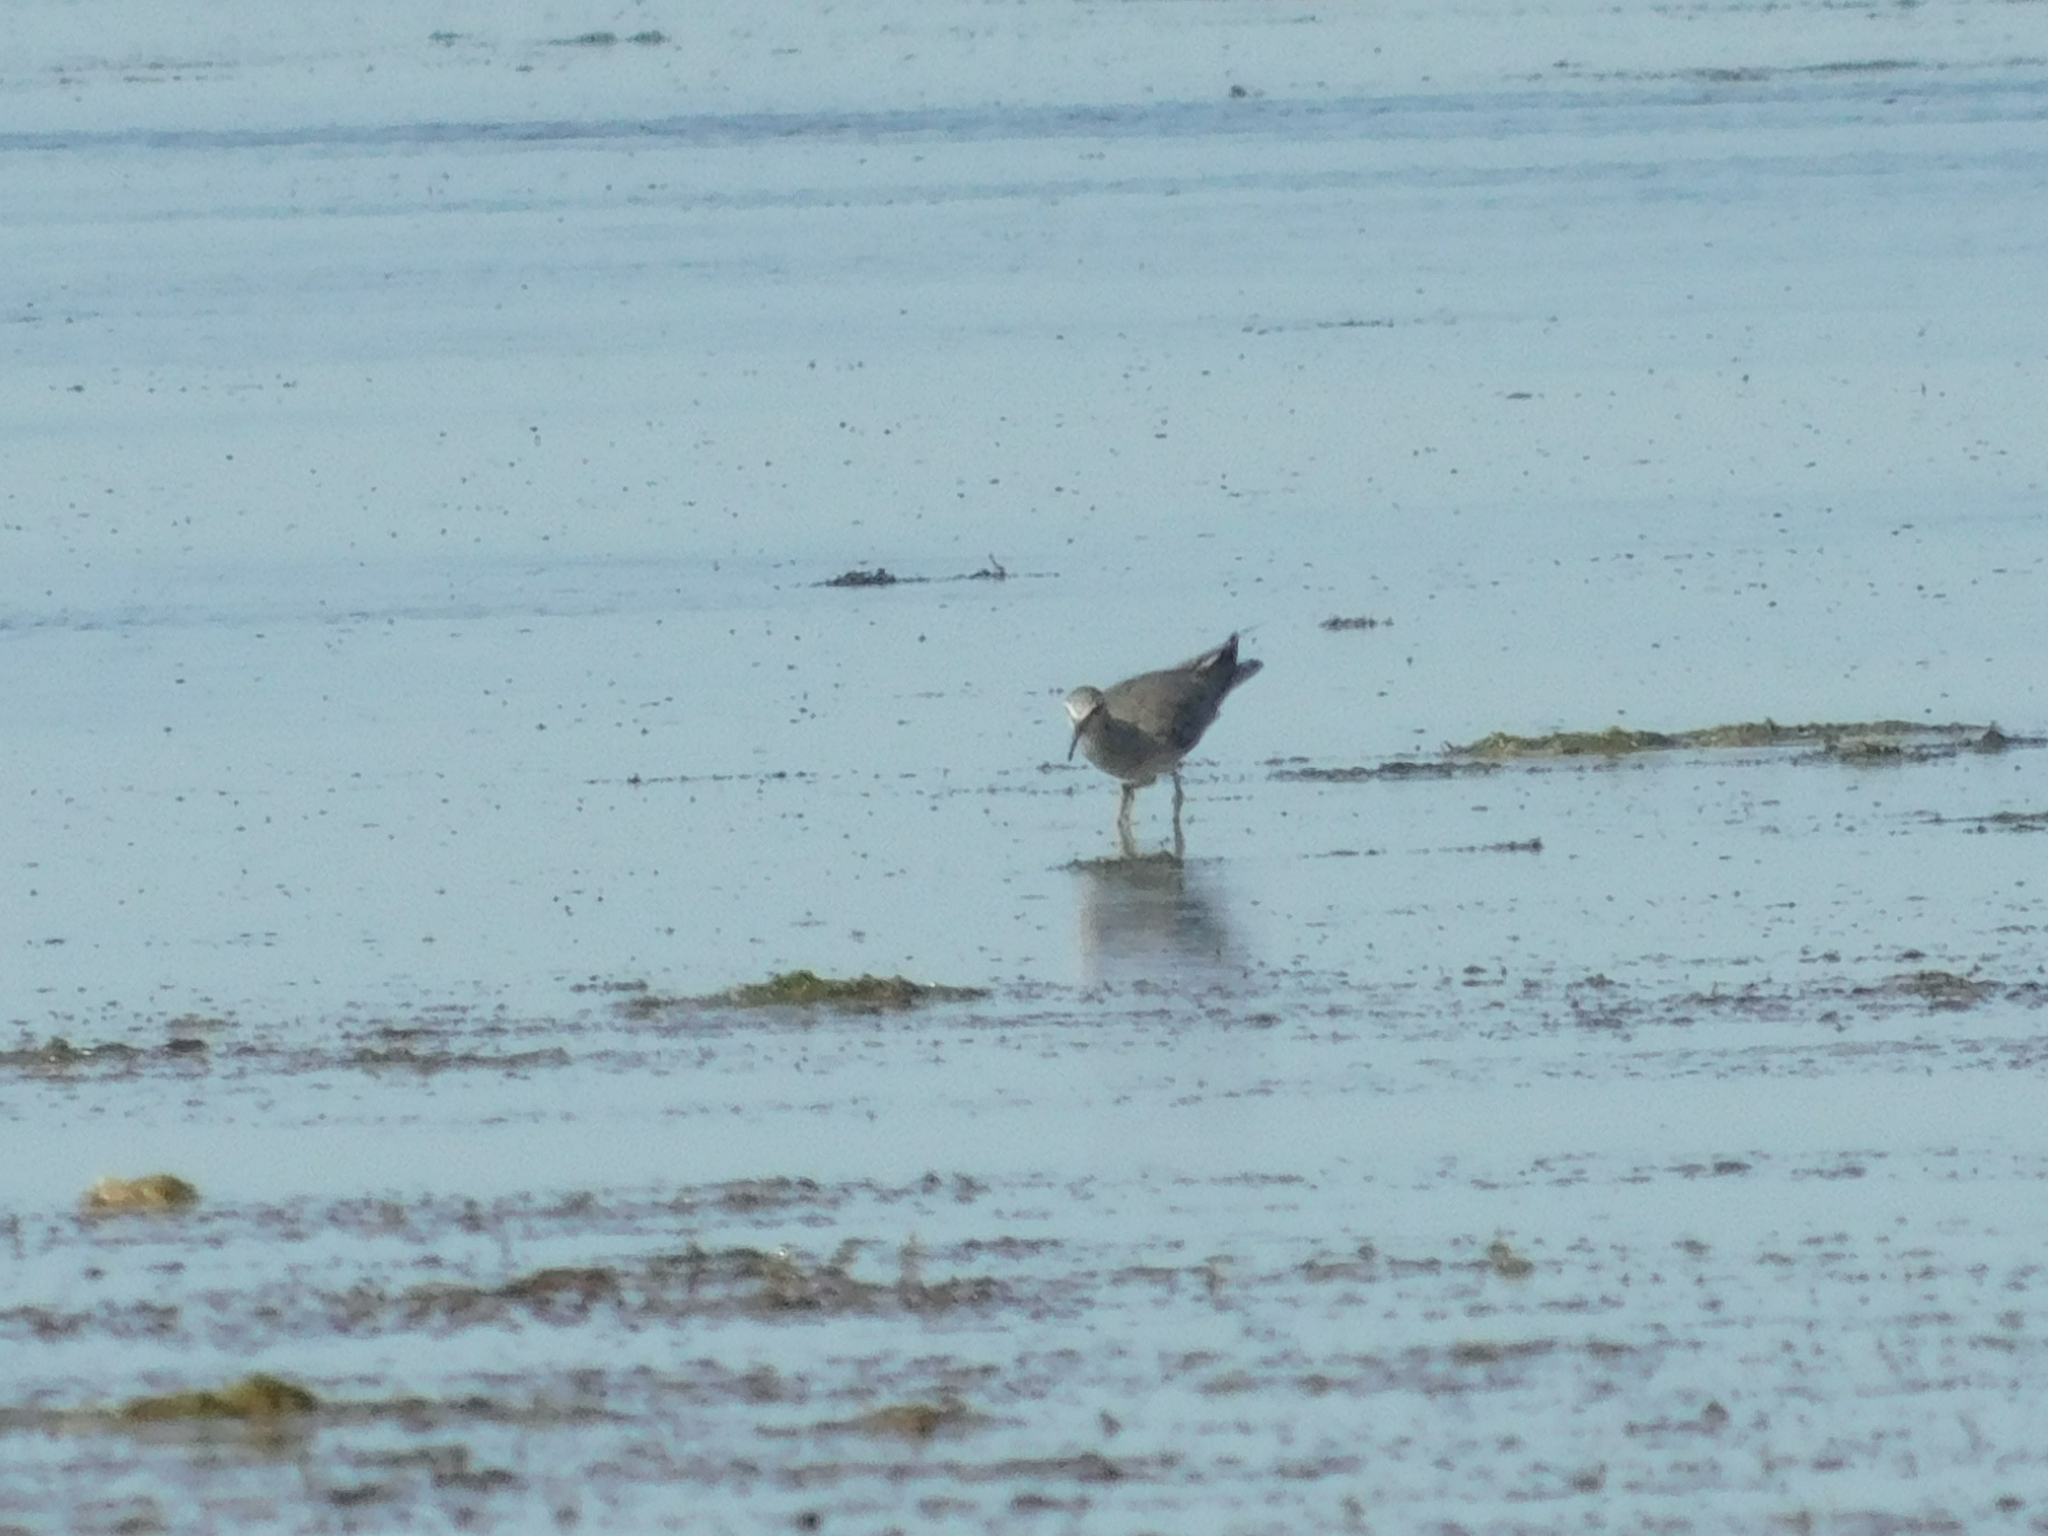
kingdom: Animalia
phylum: Chordata
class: Aves
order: Charadriiformes
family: Scolopacidae
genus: Tringa
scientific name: Tringa brevipes
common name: Grey-tailed tattler
